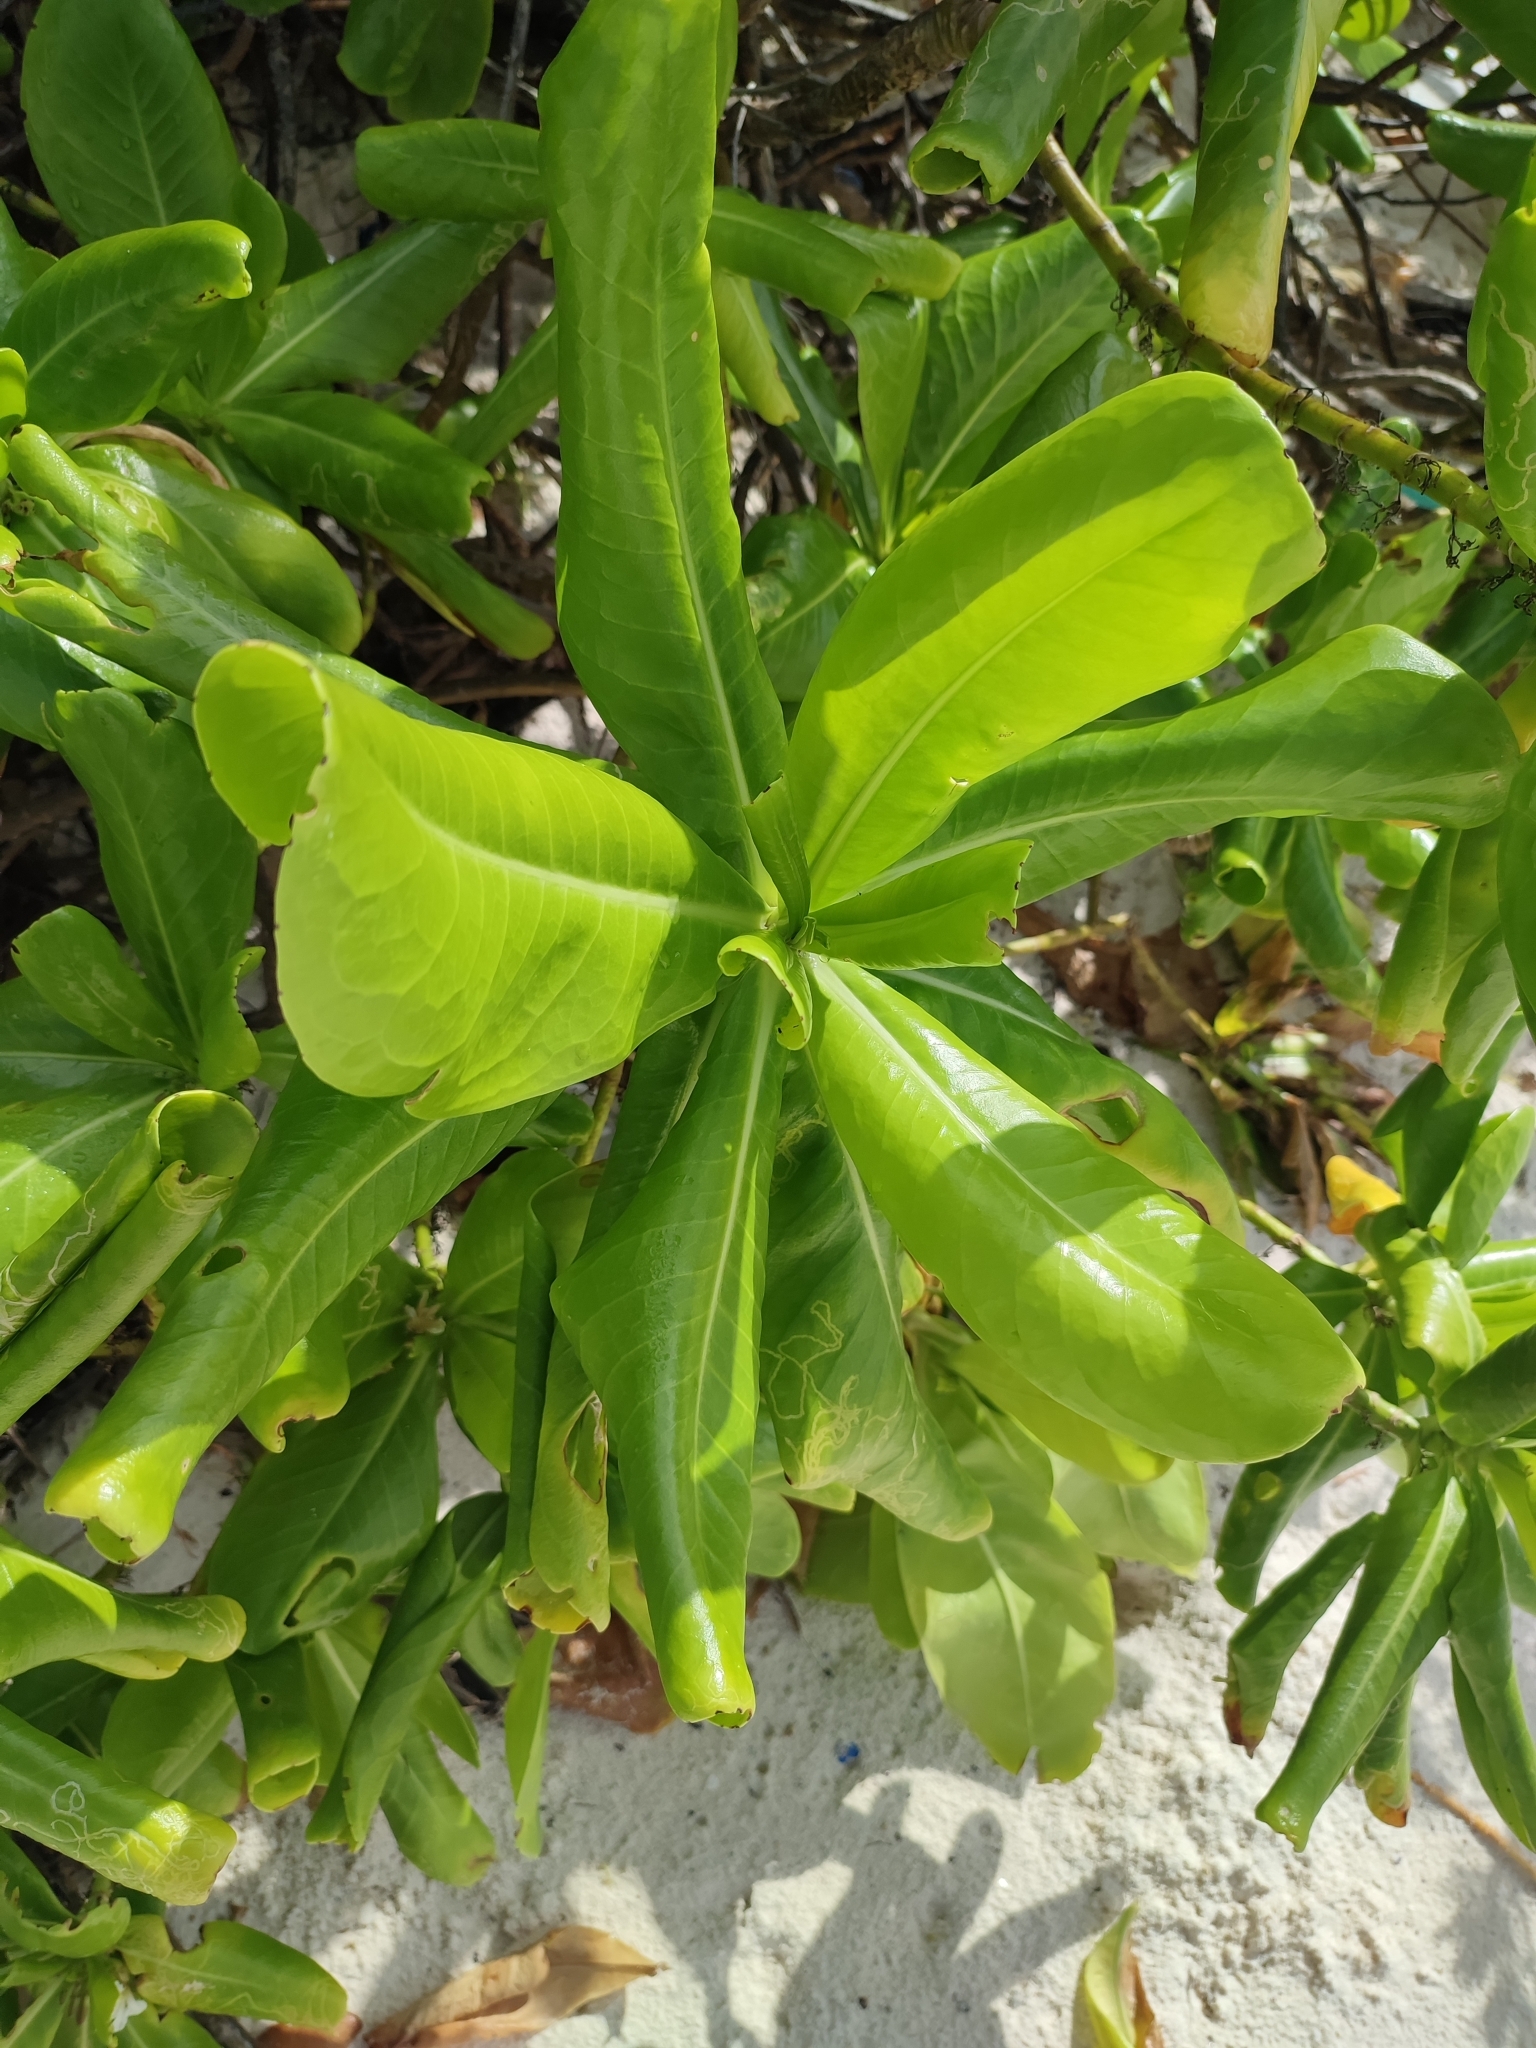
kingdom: Plantae
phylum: Tracheophyta
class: Magnoliopsida
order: Asterales
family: Goodeniaceae
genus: Scaevola
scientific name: Scaevola taccada
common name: Sea lettucetree
